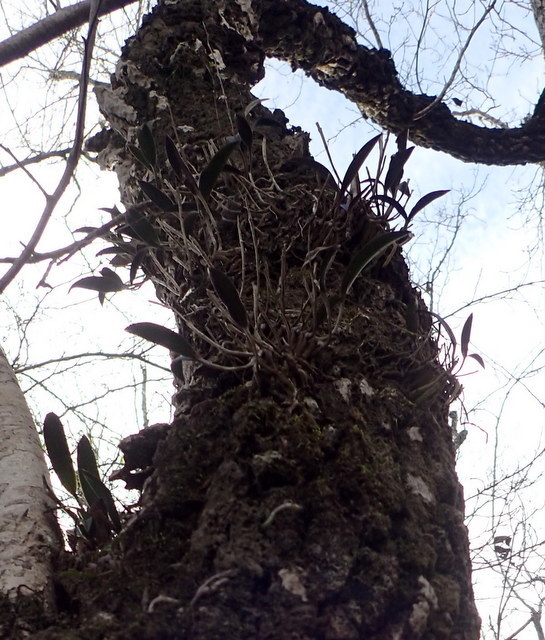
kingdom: Plantae
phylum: Tracheophyta
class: Liliopsida
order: Asparagales
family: Orchidaceae
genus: Epidendrum
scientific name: Epidendrum conopseum
